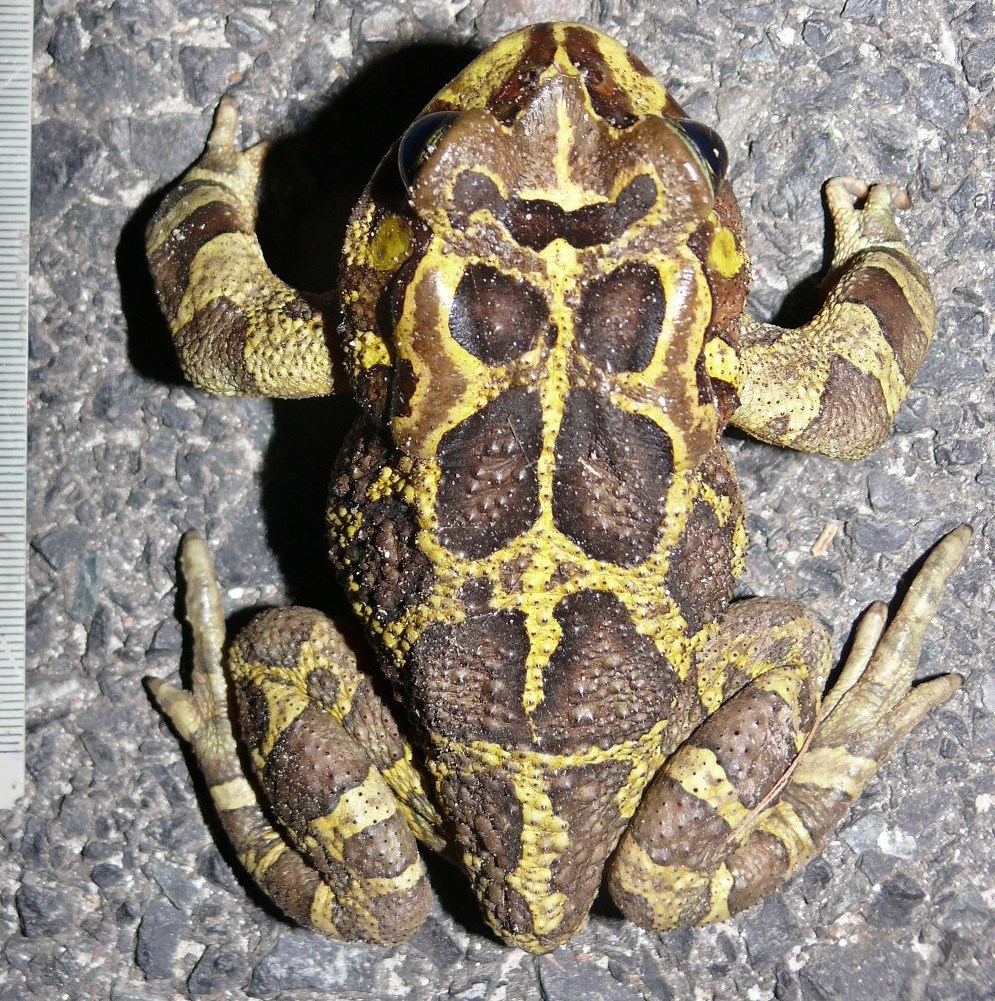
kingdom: Animalia
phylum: Chordata
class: Amphibia
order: Anura
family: Bufonidae
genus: Sclerophrys
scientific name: Sclerophrys pantherina
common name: Panther toad
